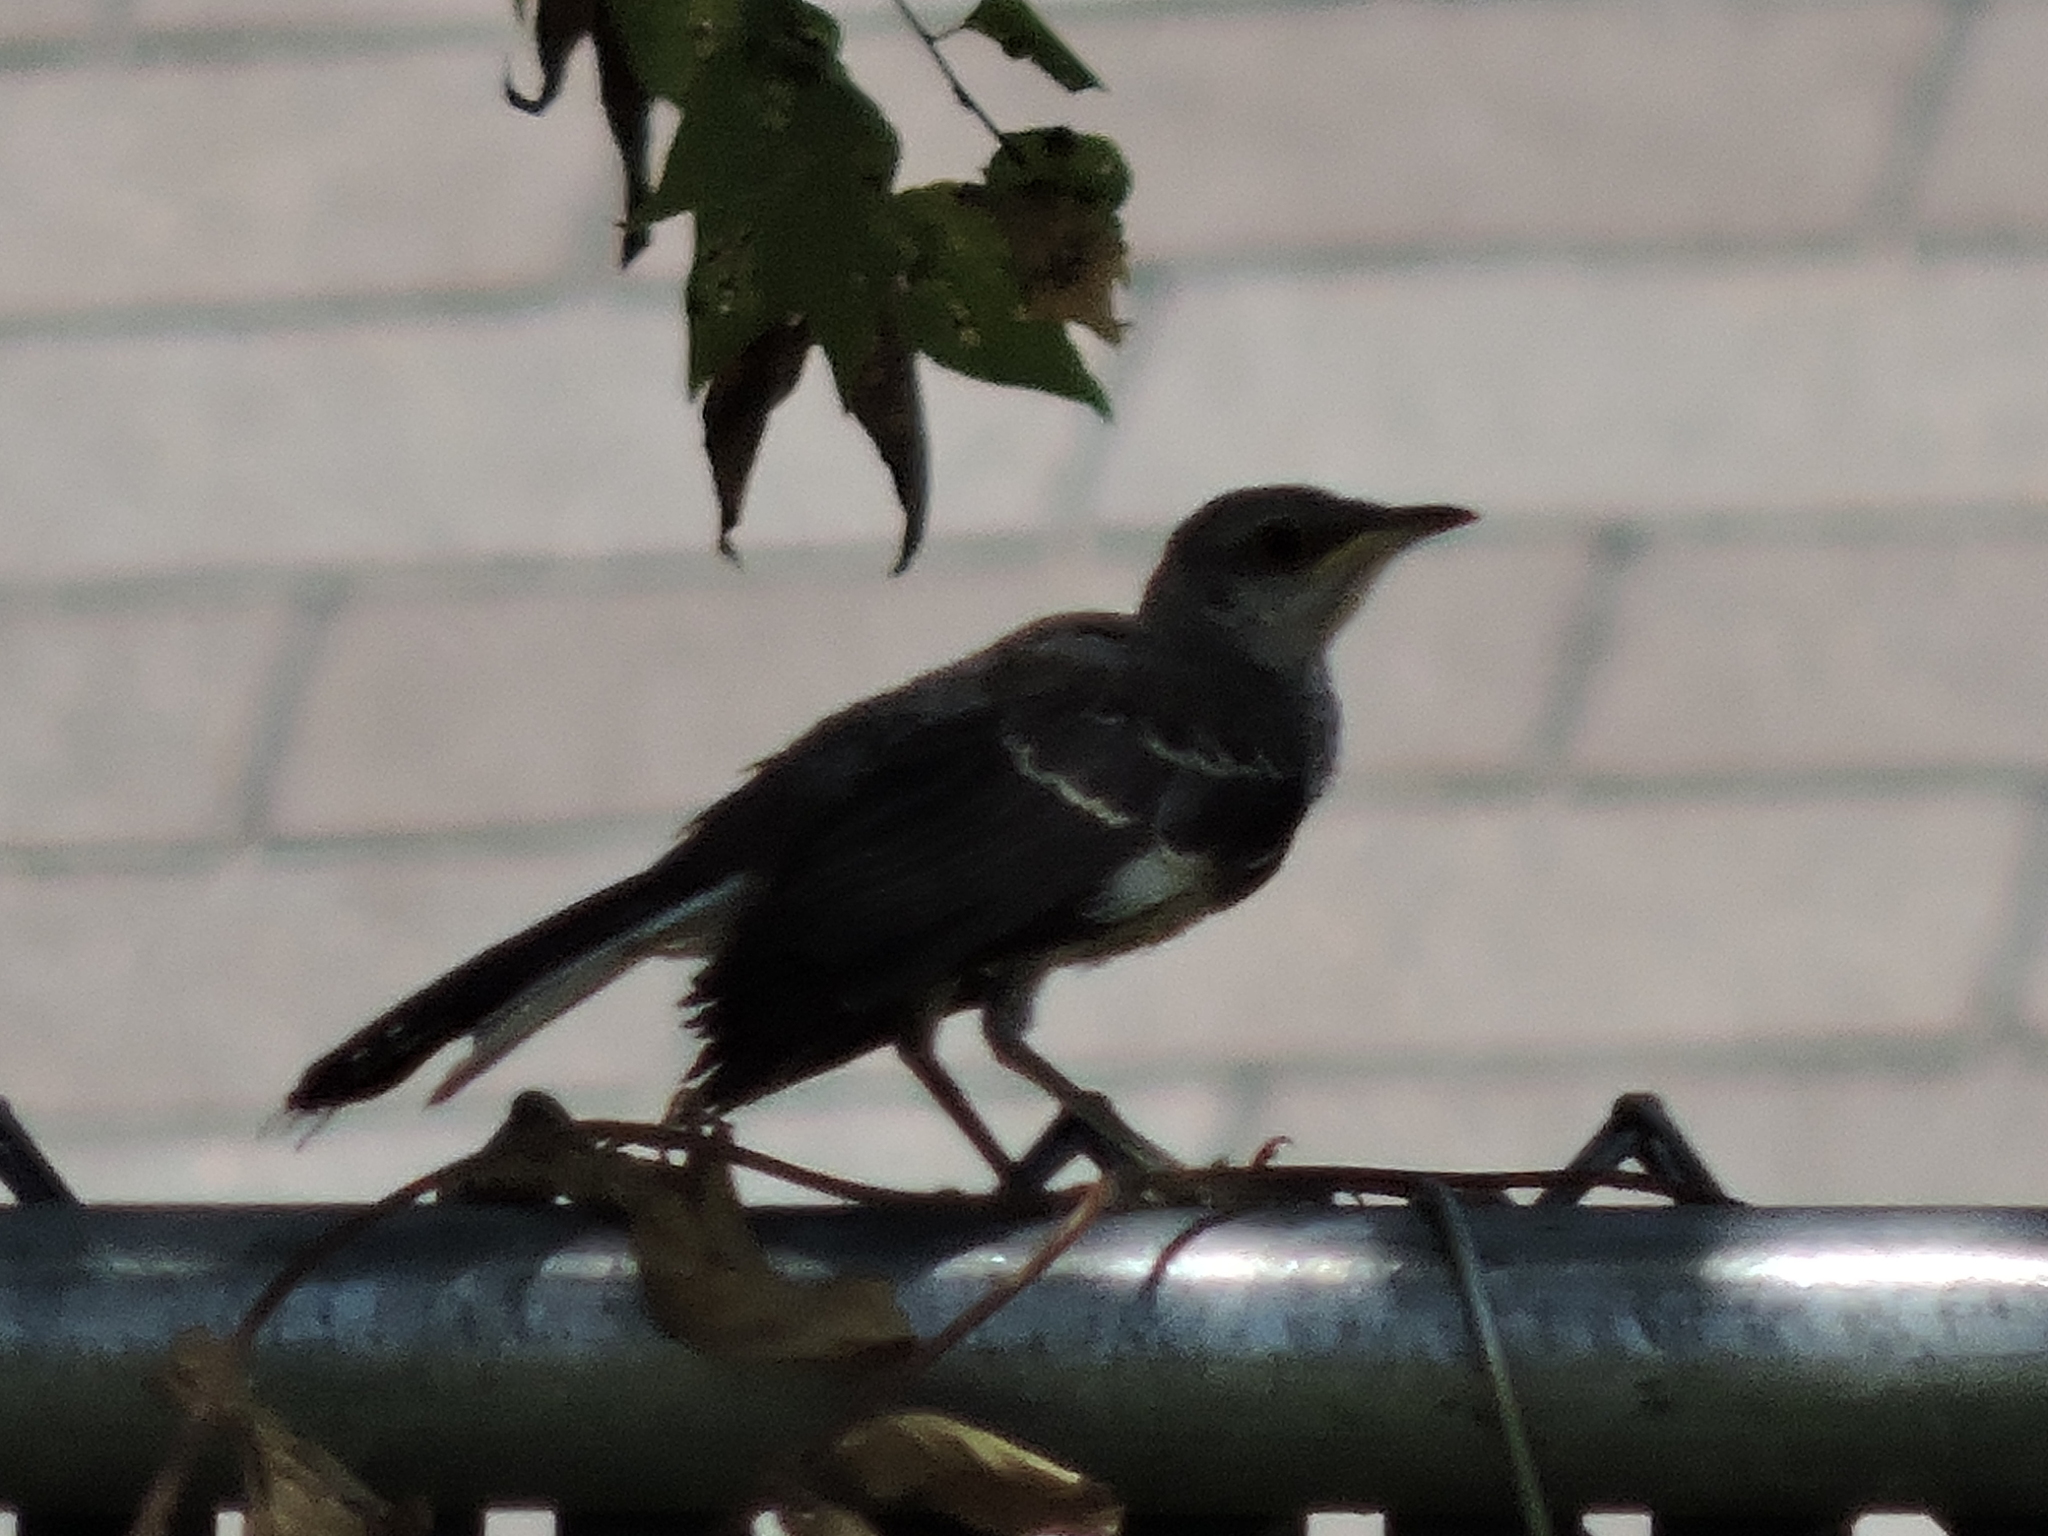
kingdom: Animalia
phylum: Chordata
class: Aves
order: Passeriformes
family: Mimidae
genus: Mimus
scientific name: Mimus polyglottos
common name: Northern mockingbird
